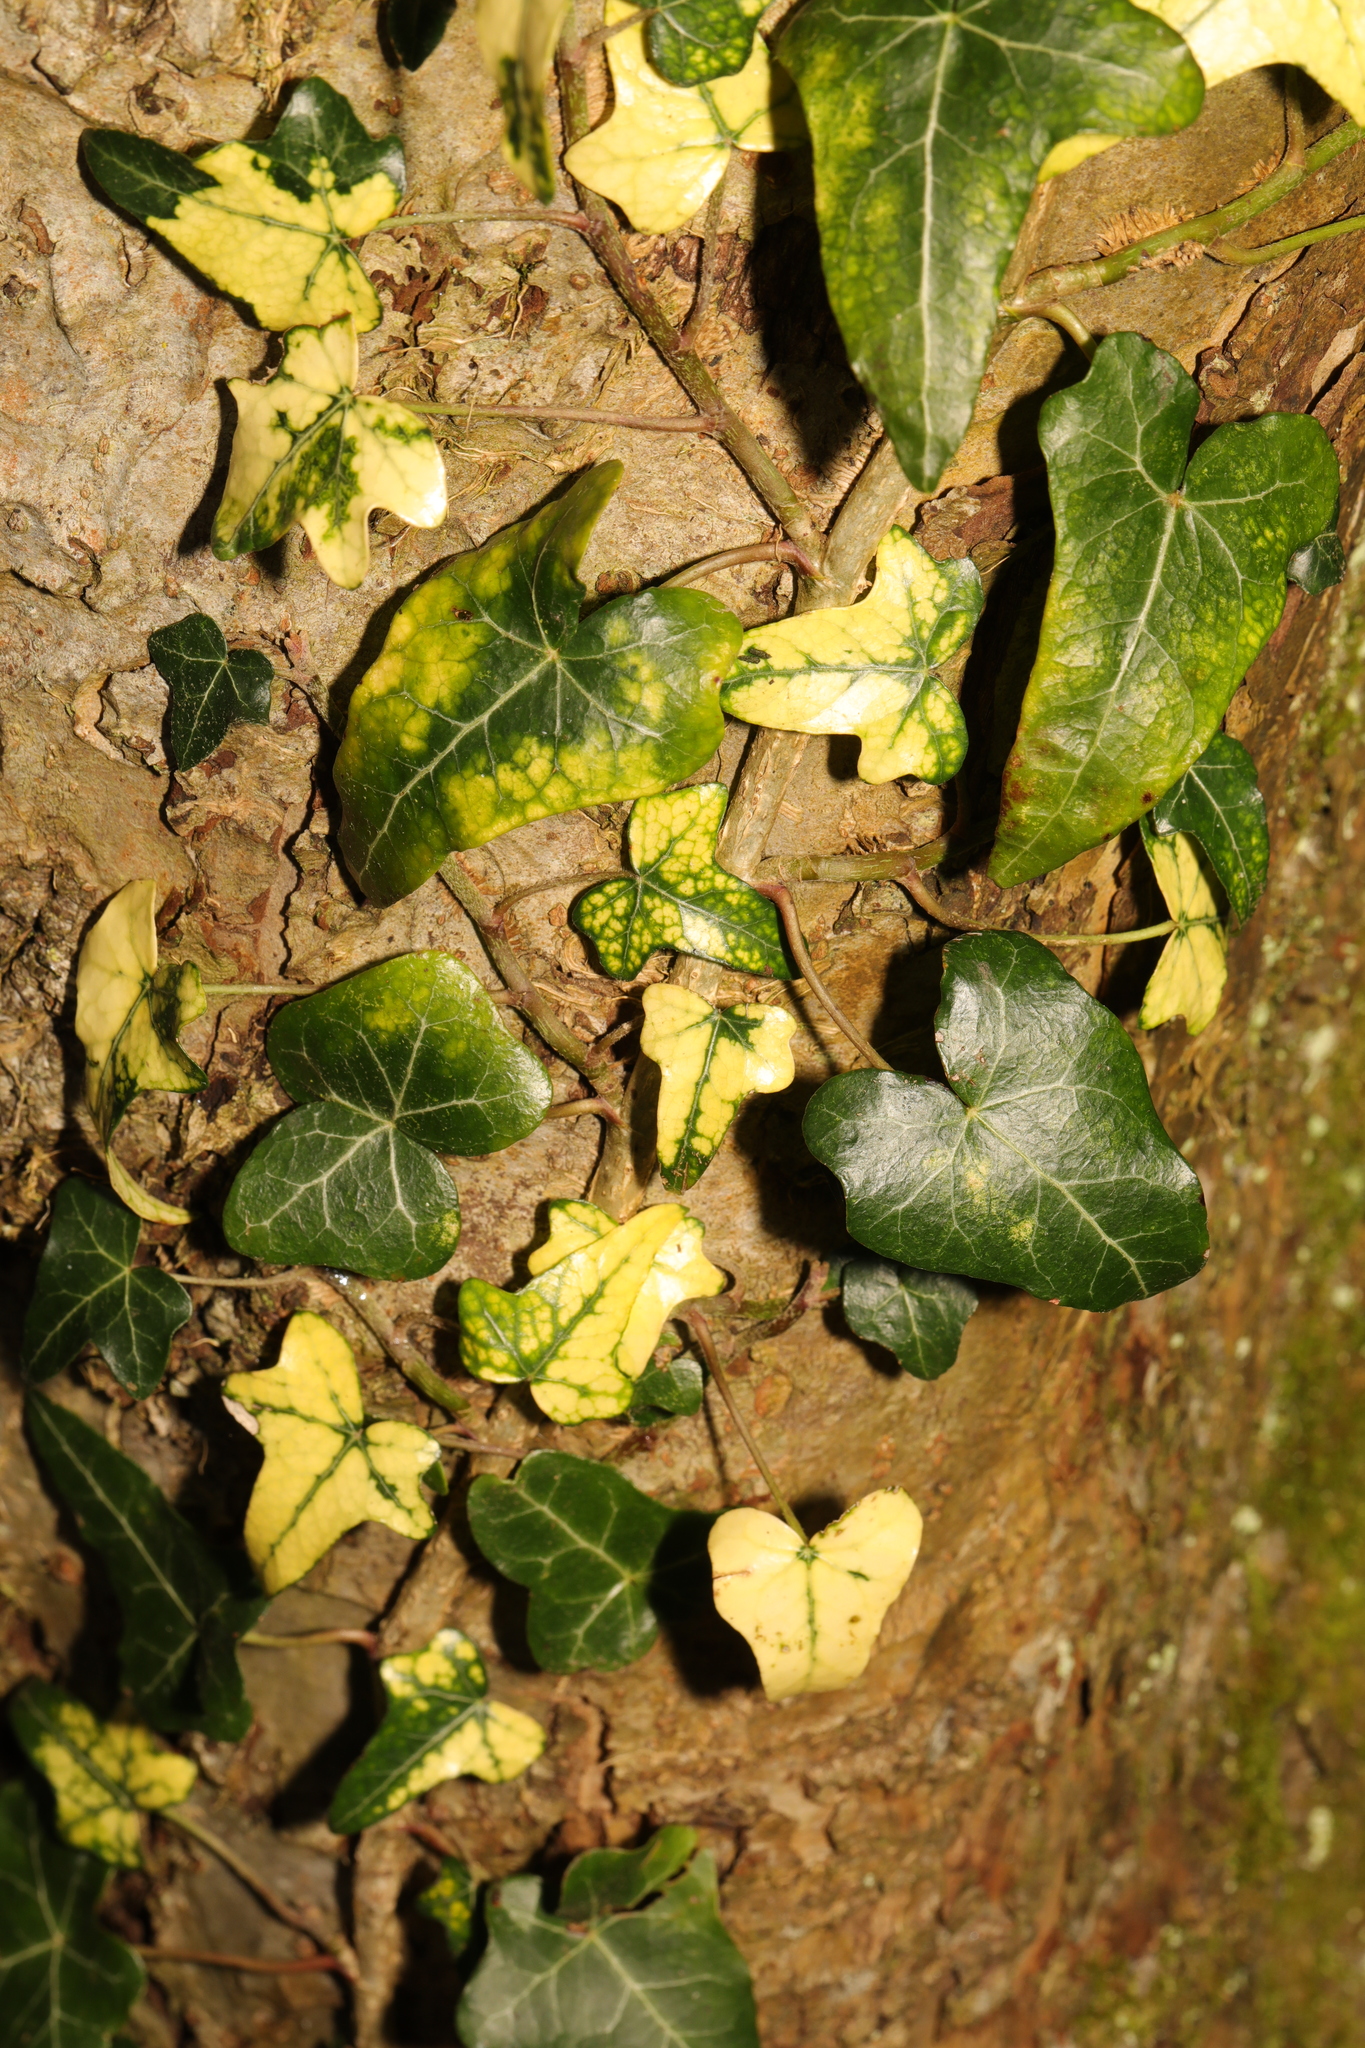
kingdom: Plantae
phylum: Tracheophyta
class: Magnoliopsida
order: Apiales
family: Araliaceae
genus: Hedera
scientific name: Hedera helix
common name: Ivy
